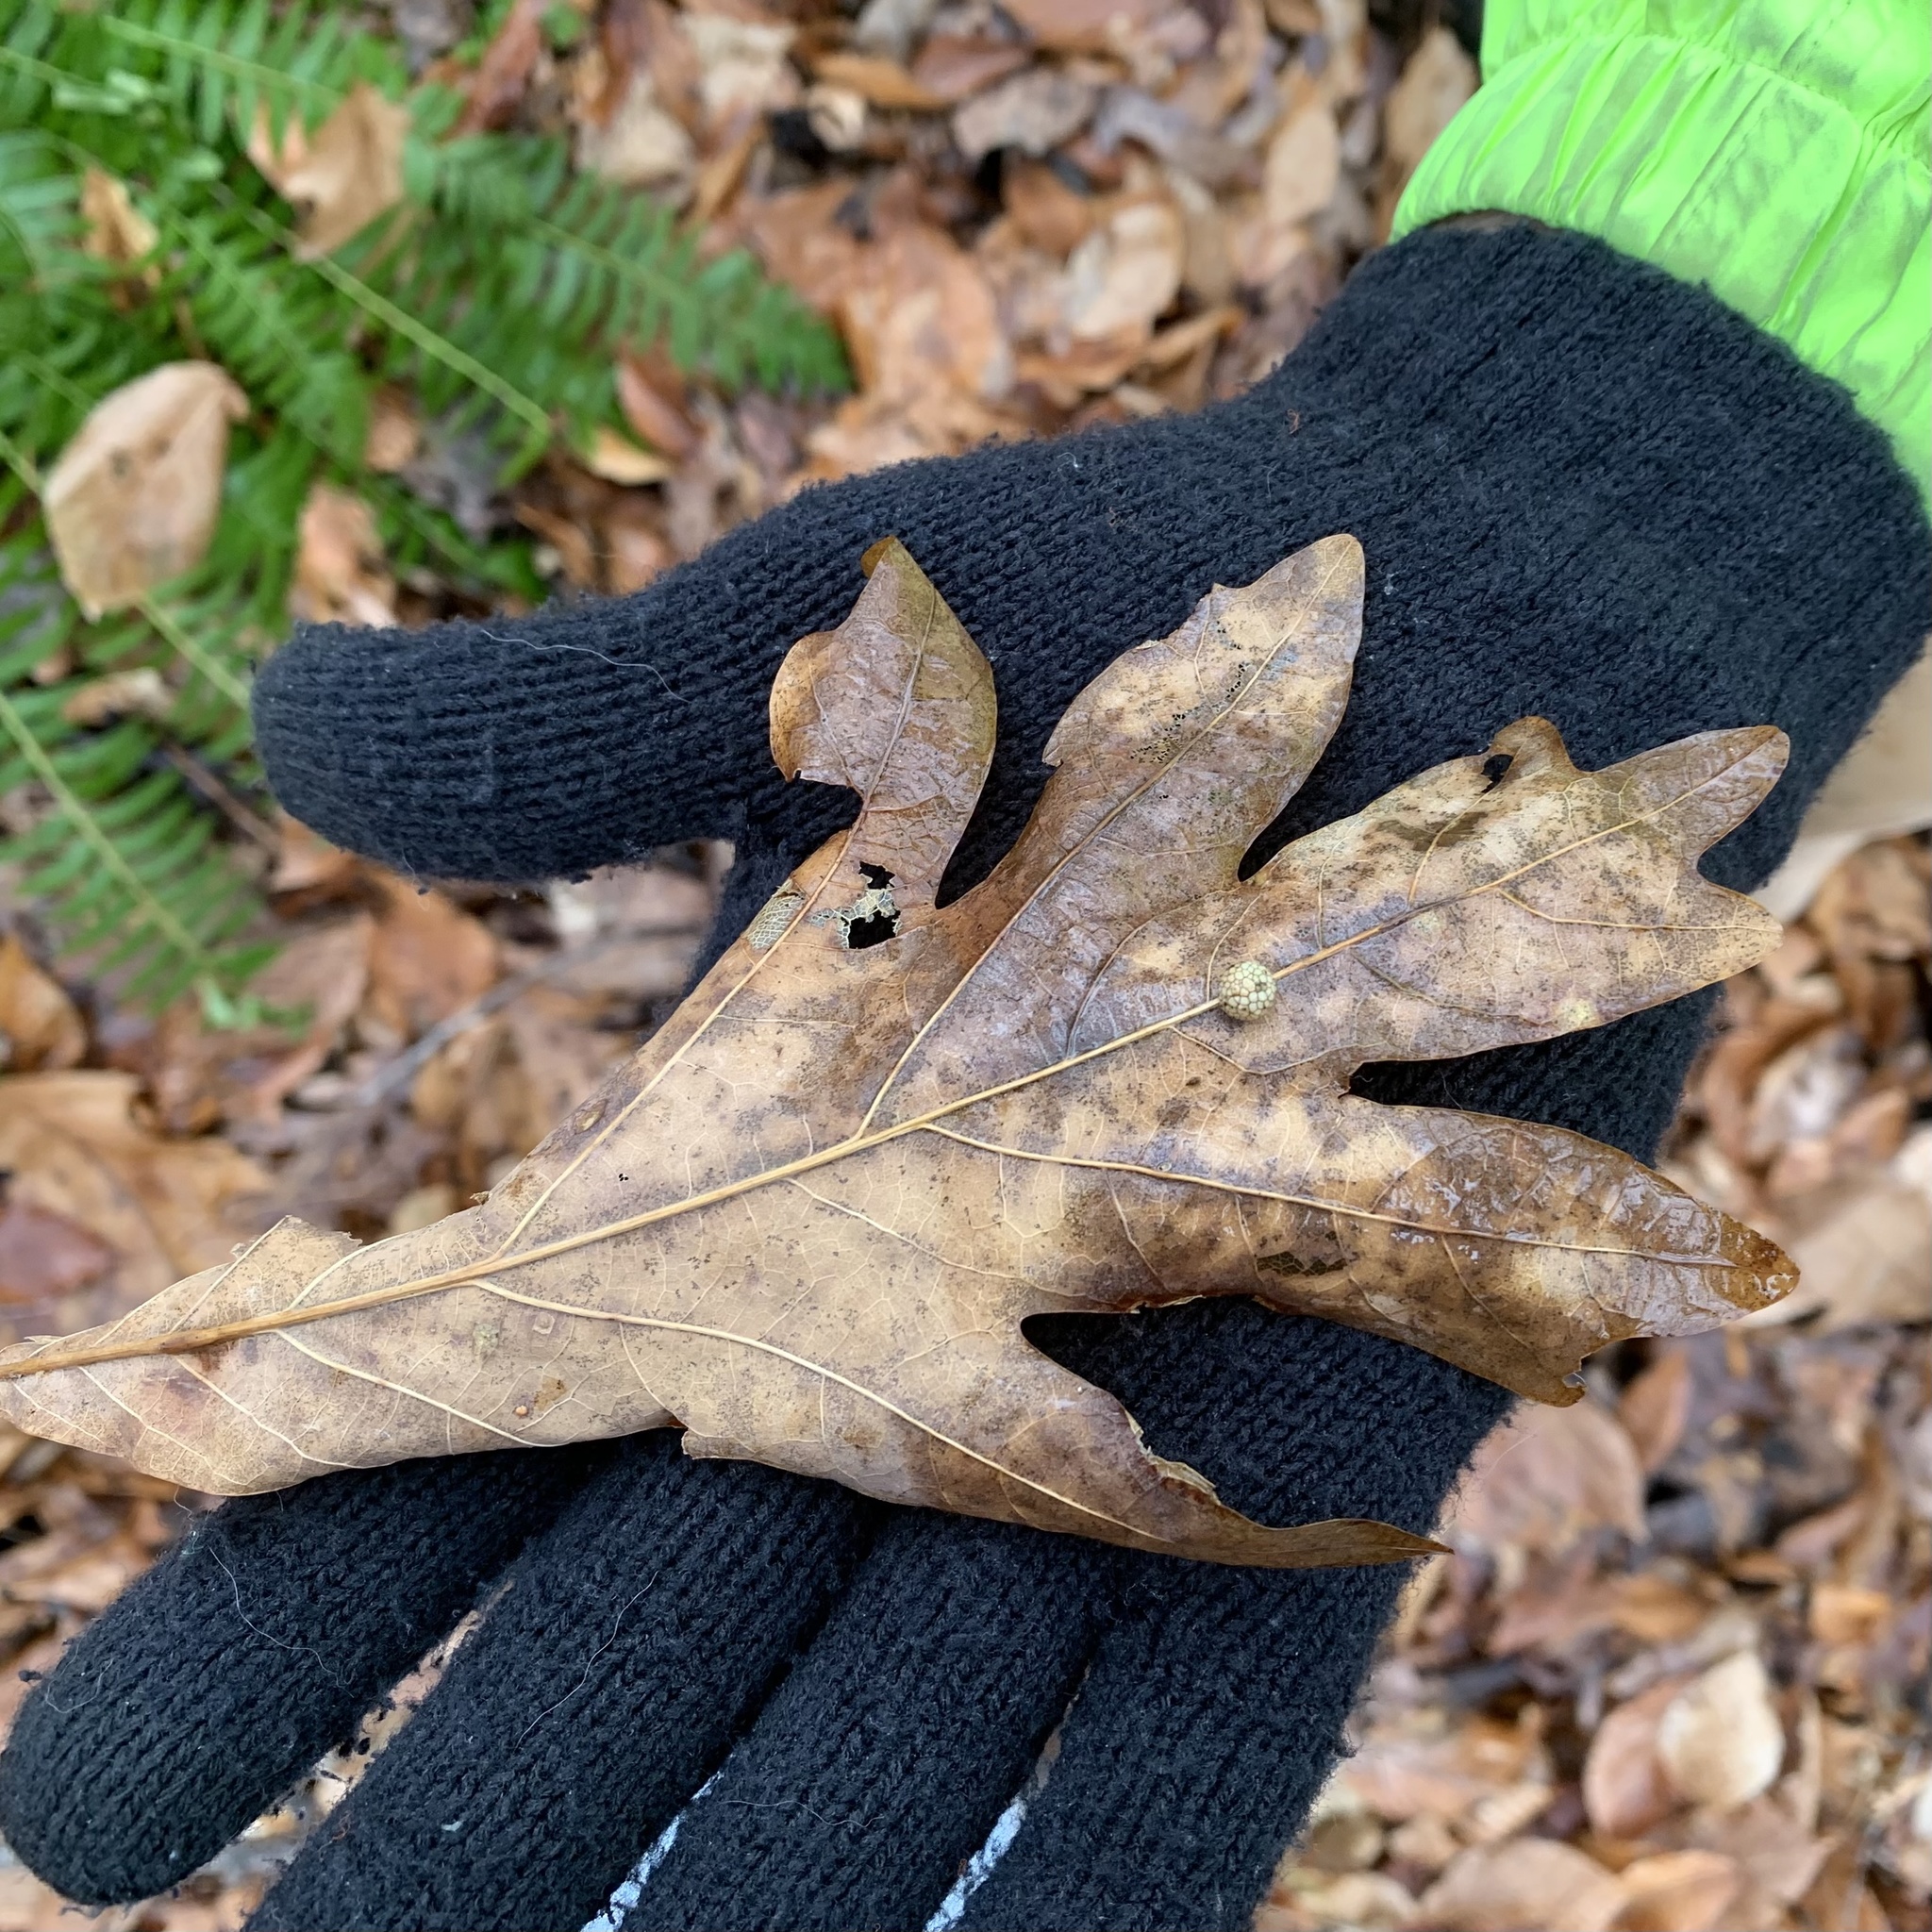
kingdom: Animalia
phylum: Arthropoda
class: Insecta
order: Hymenoptera
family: Cynipidae
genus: Acraspis
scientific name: Acraspis
